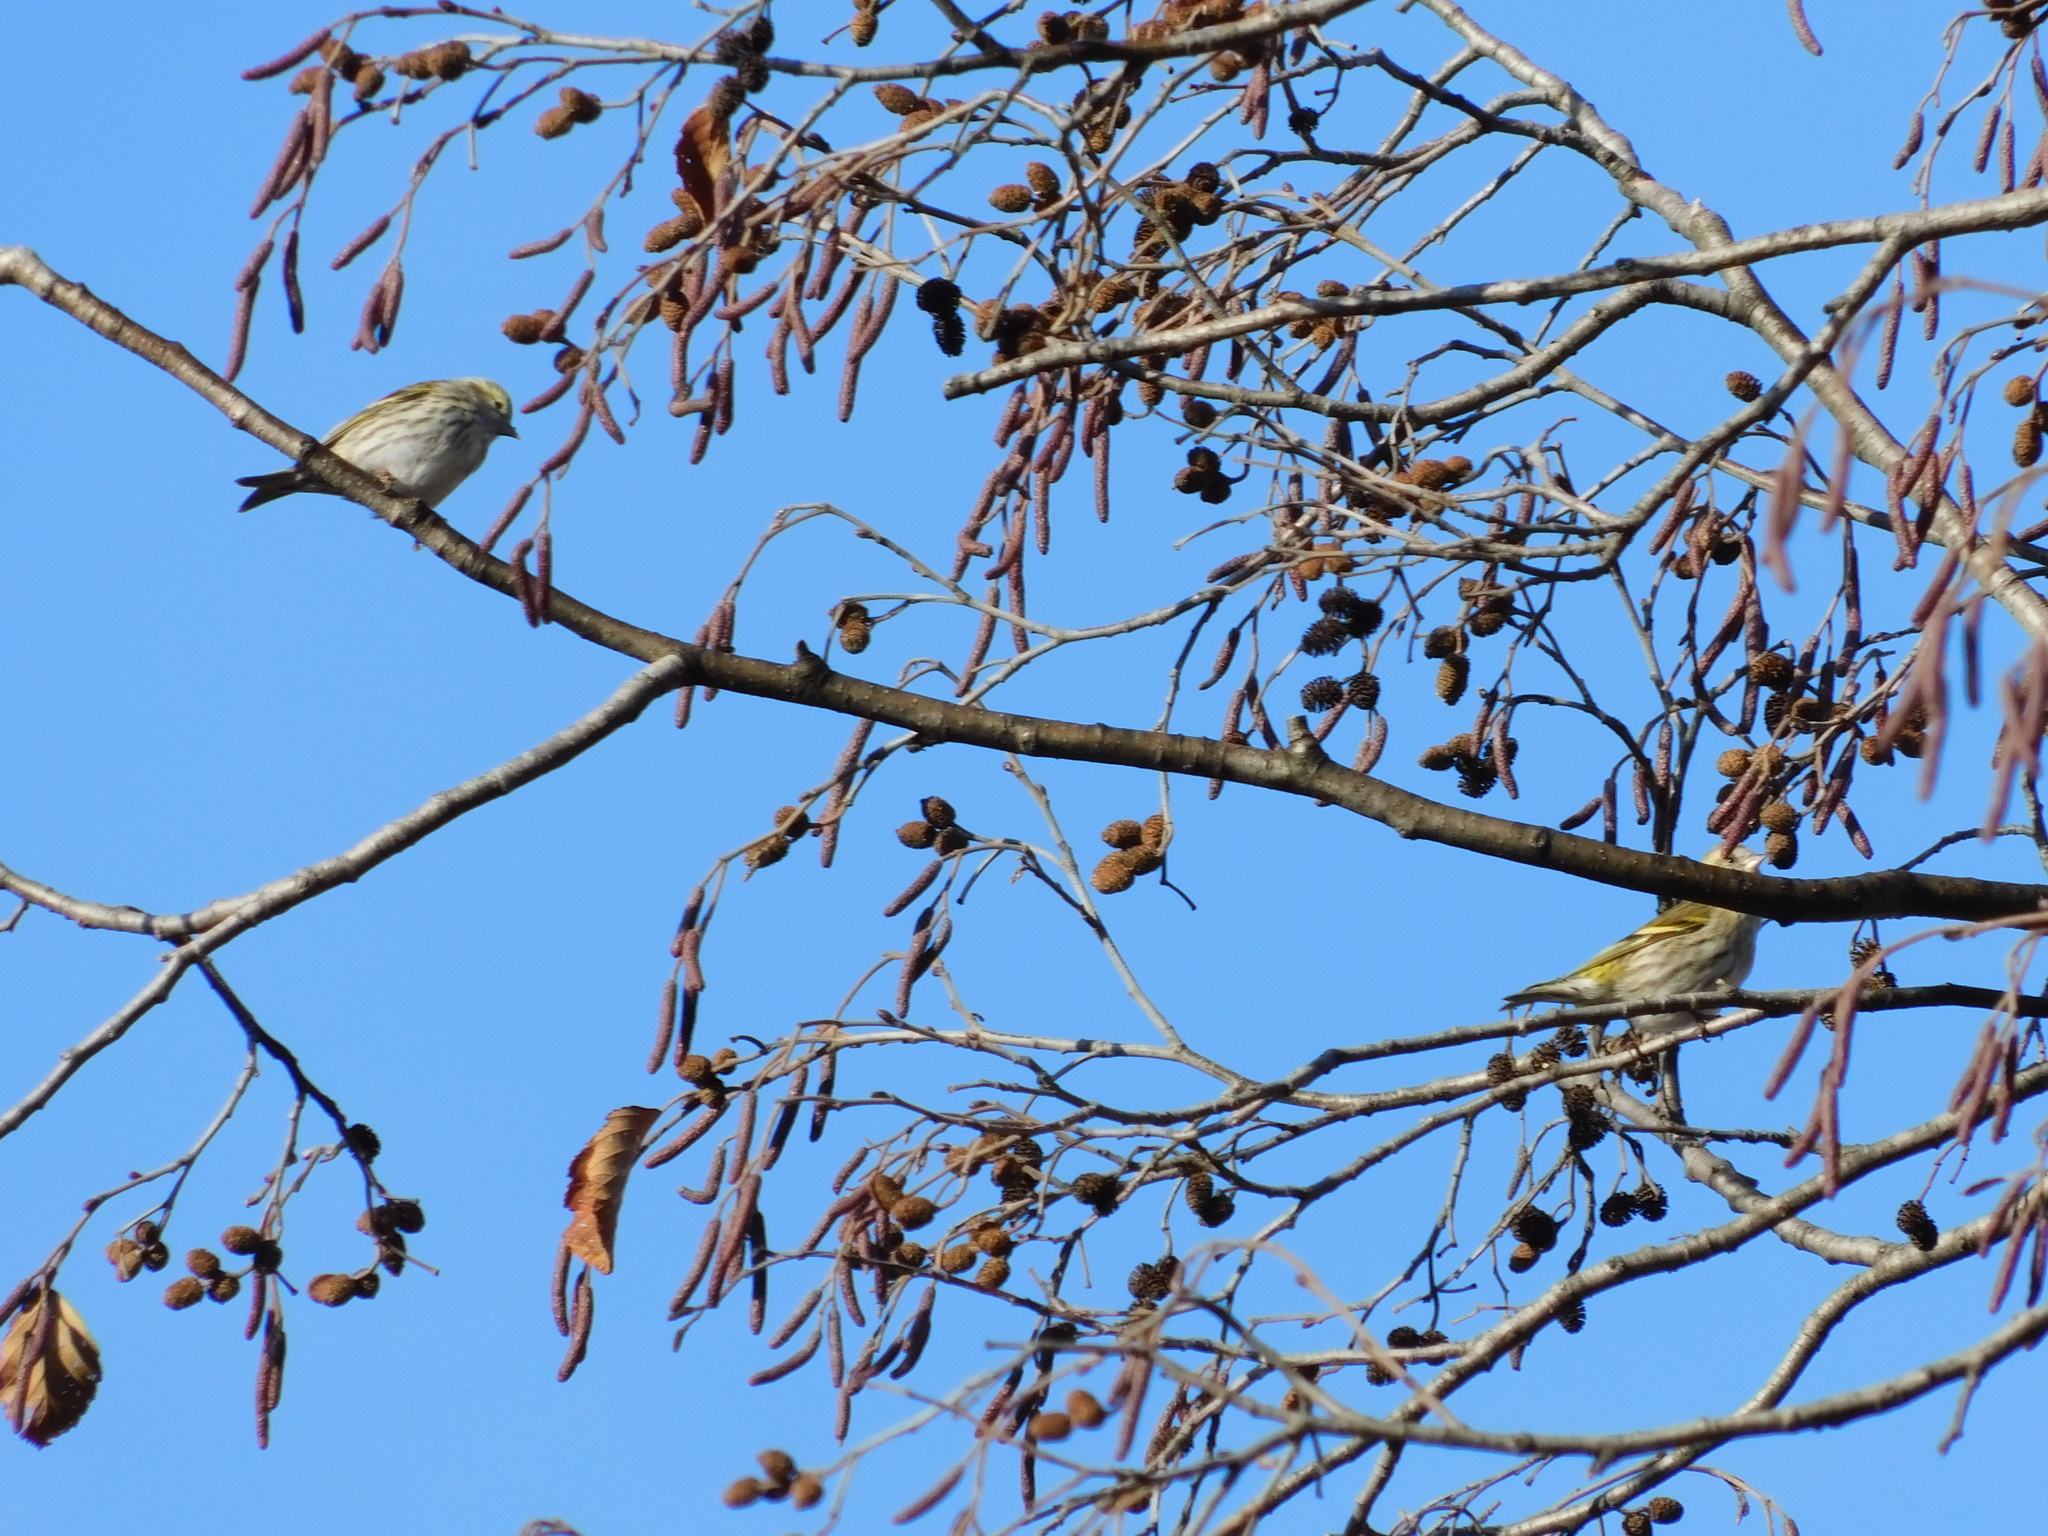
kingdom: Animalia
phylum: Chordata
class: Aves
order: Passeriformes
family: Fringillidae
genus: Spinus
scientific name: Spinus spinus
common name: Eurasian siskin
